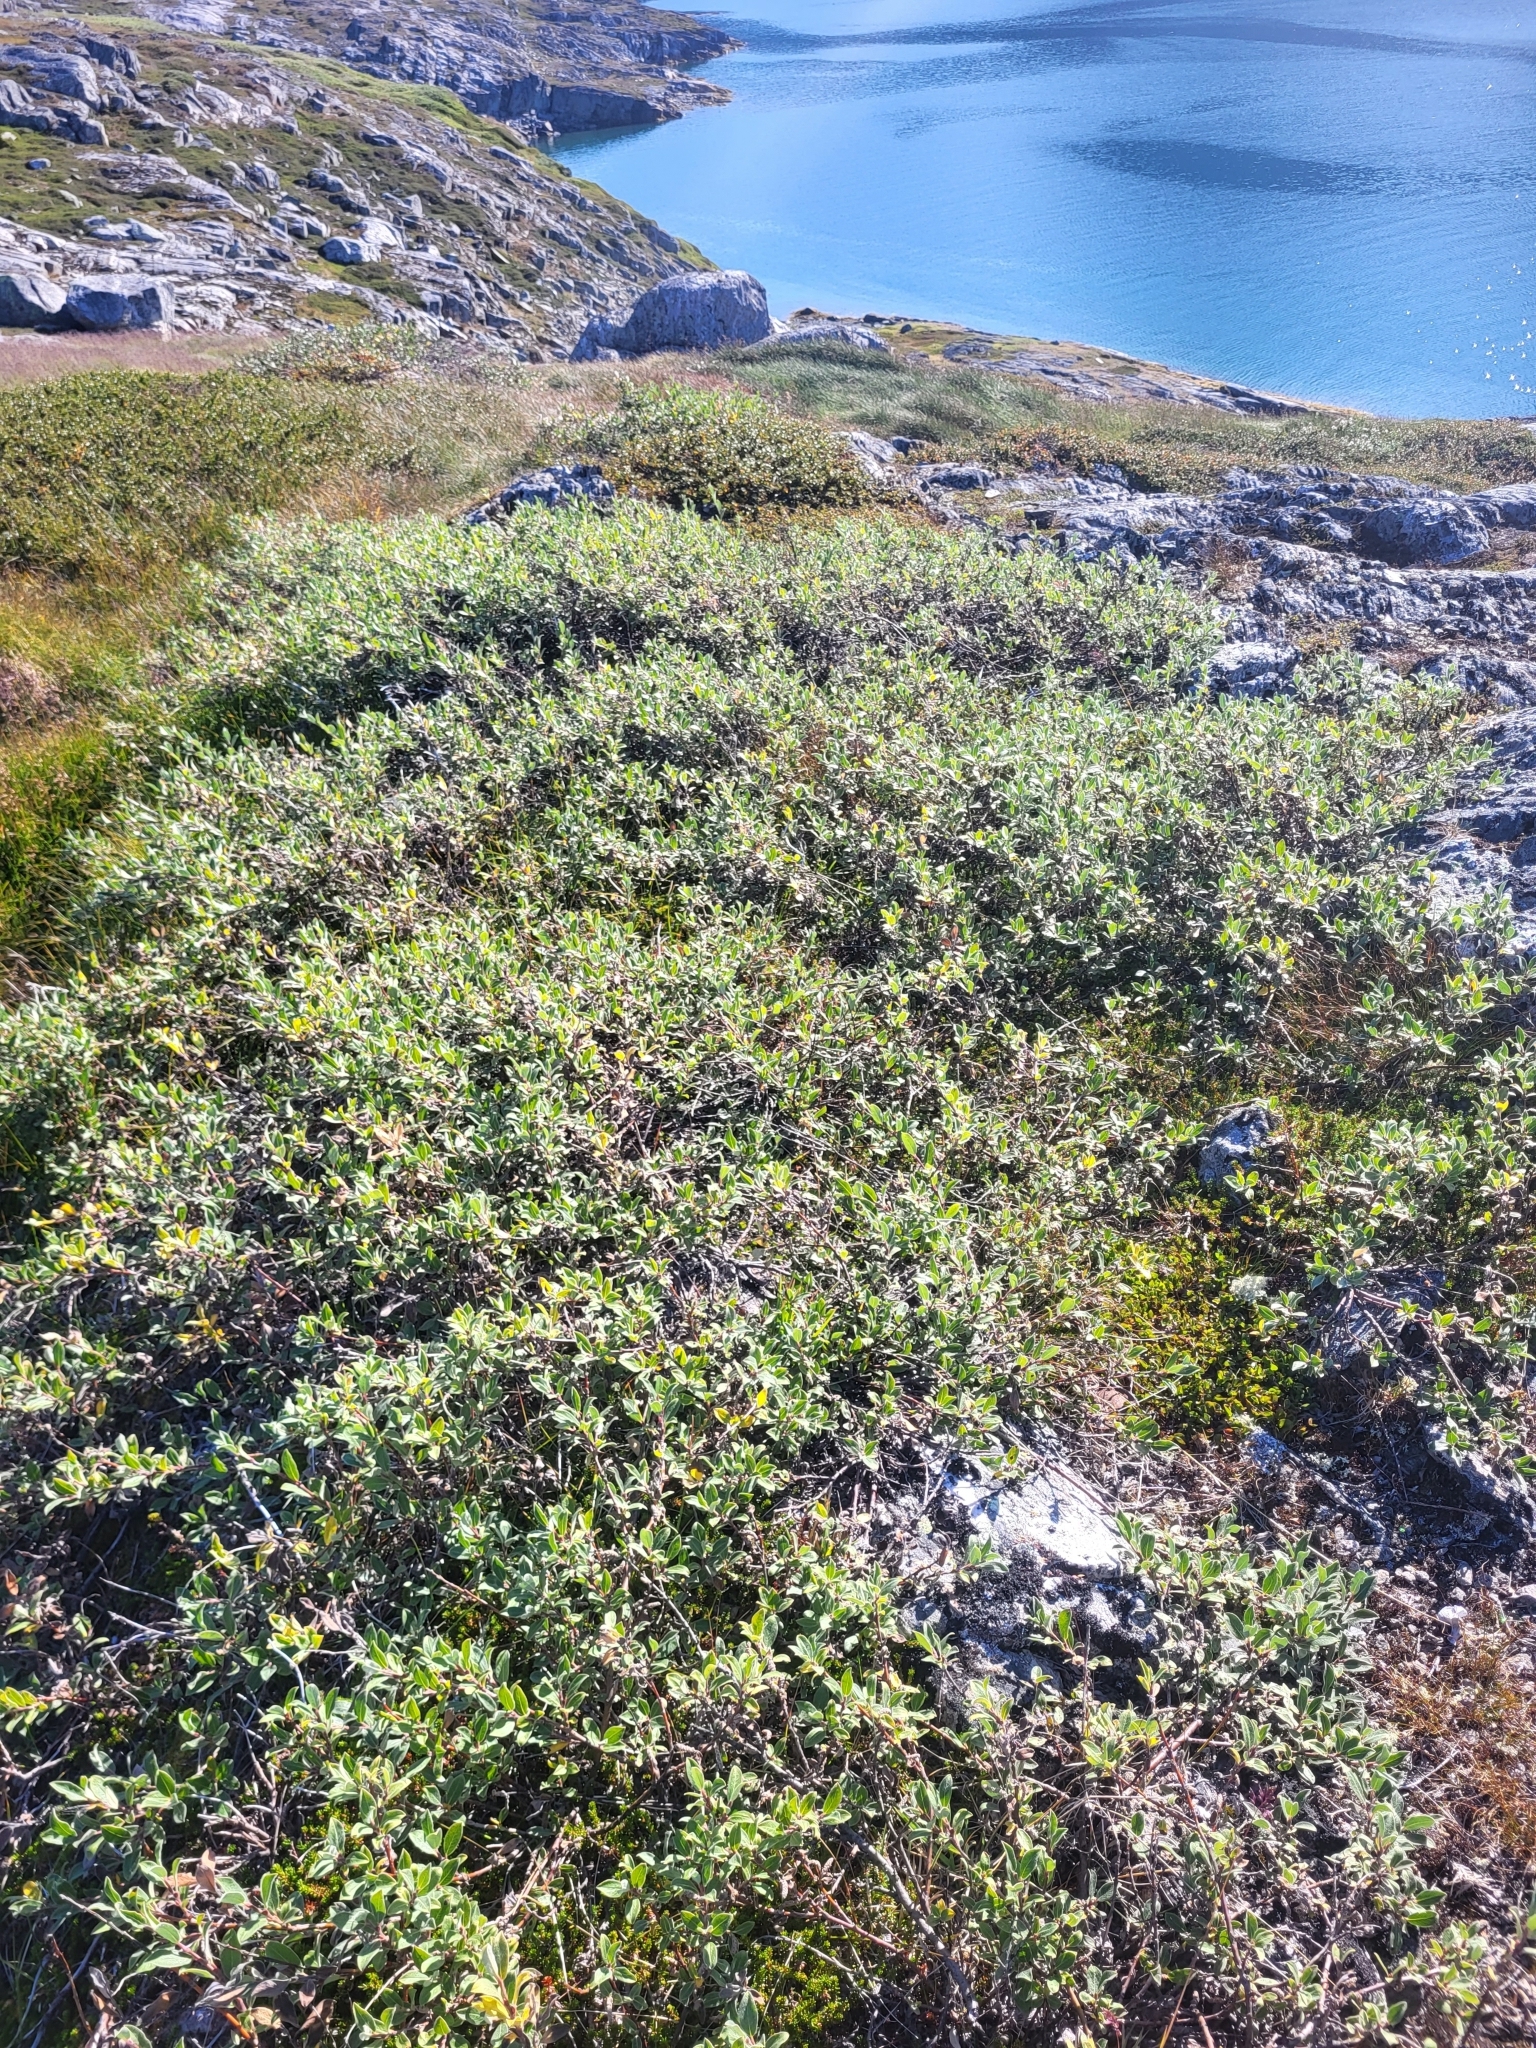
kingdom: Plantae
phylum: Tracheophyta
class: Magnoliopsida
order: Malpighiales
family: Salicaceae
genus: Salix
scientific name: Salix glauca
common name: Glaucous willow
